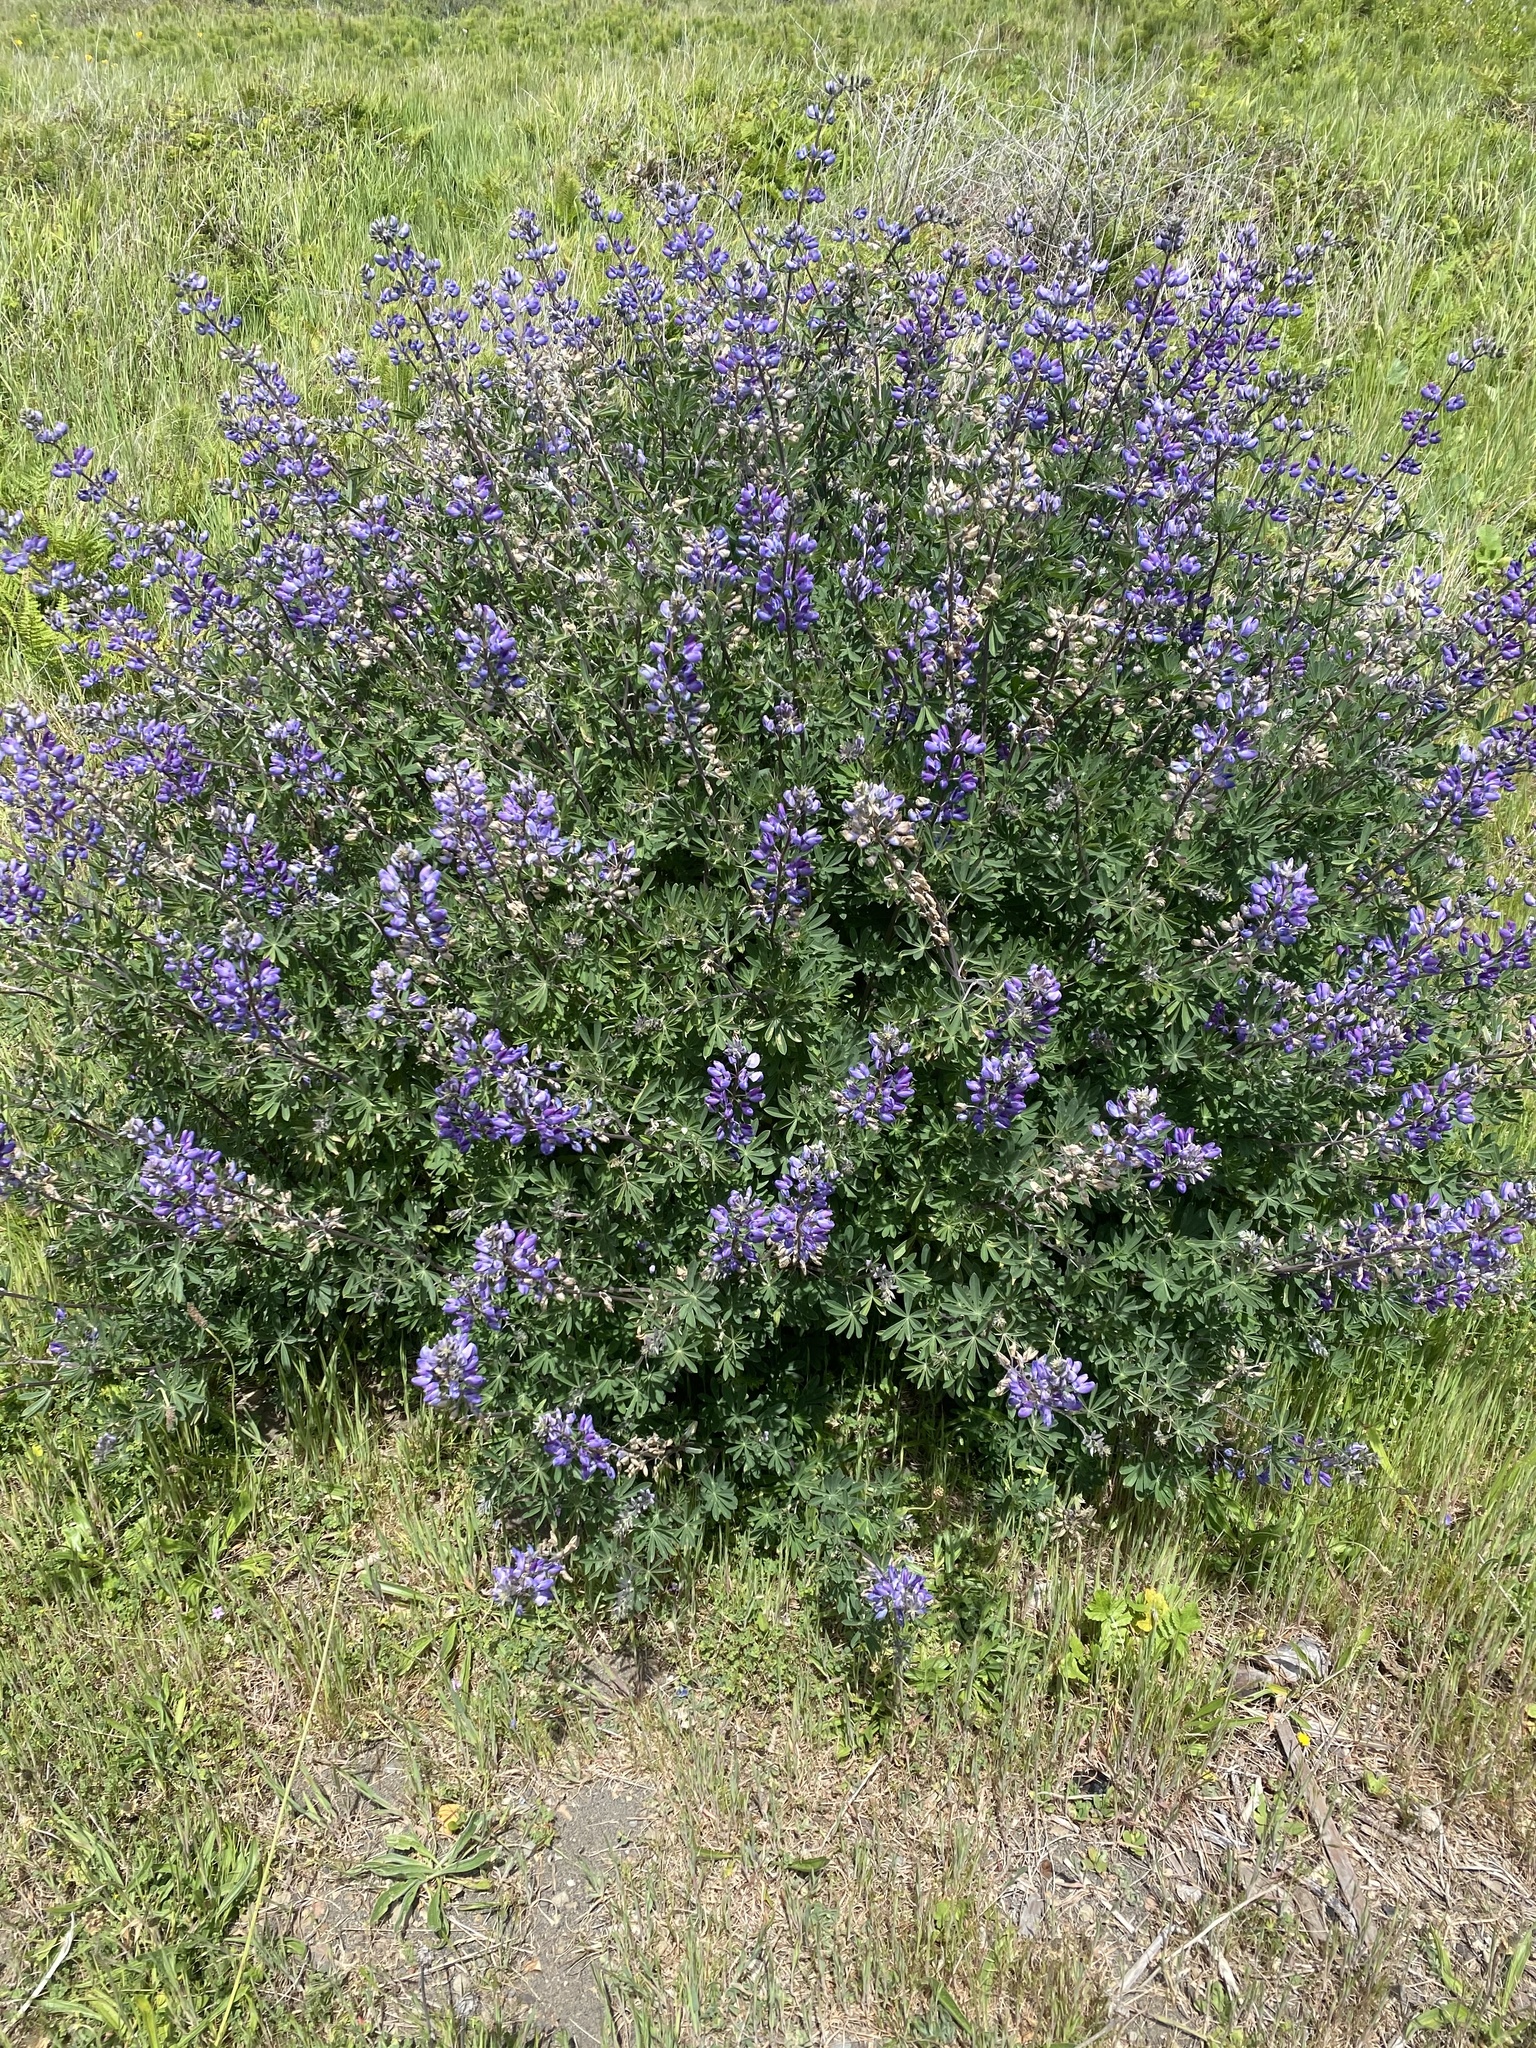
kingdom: Plantae
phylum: Tracheophyta
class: Magnoliopsida
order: Fabales
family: Fabaceae
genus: Lupinus
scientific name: Lupinus albifrons
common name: Foothill lupine
